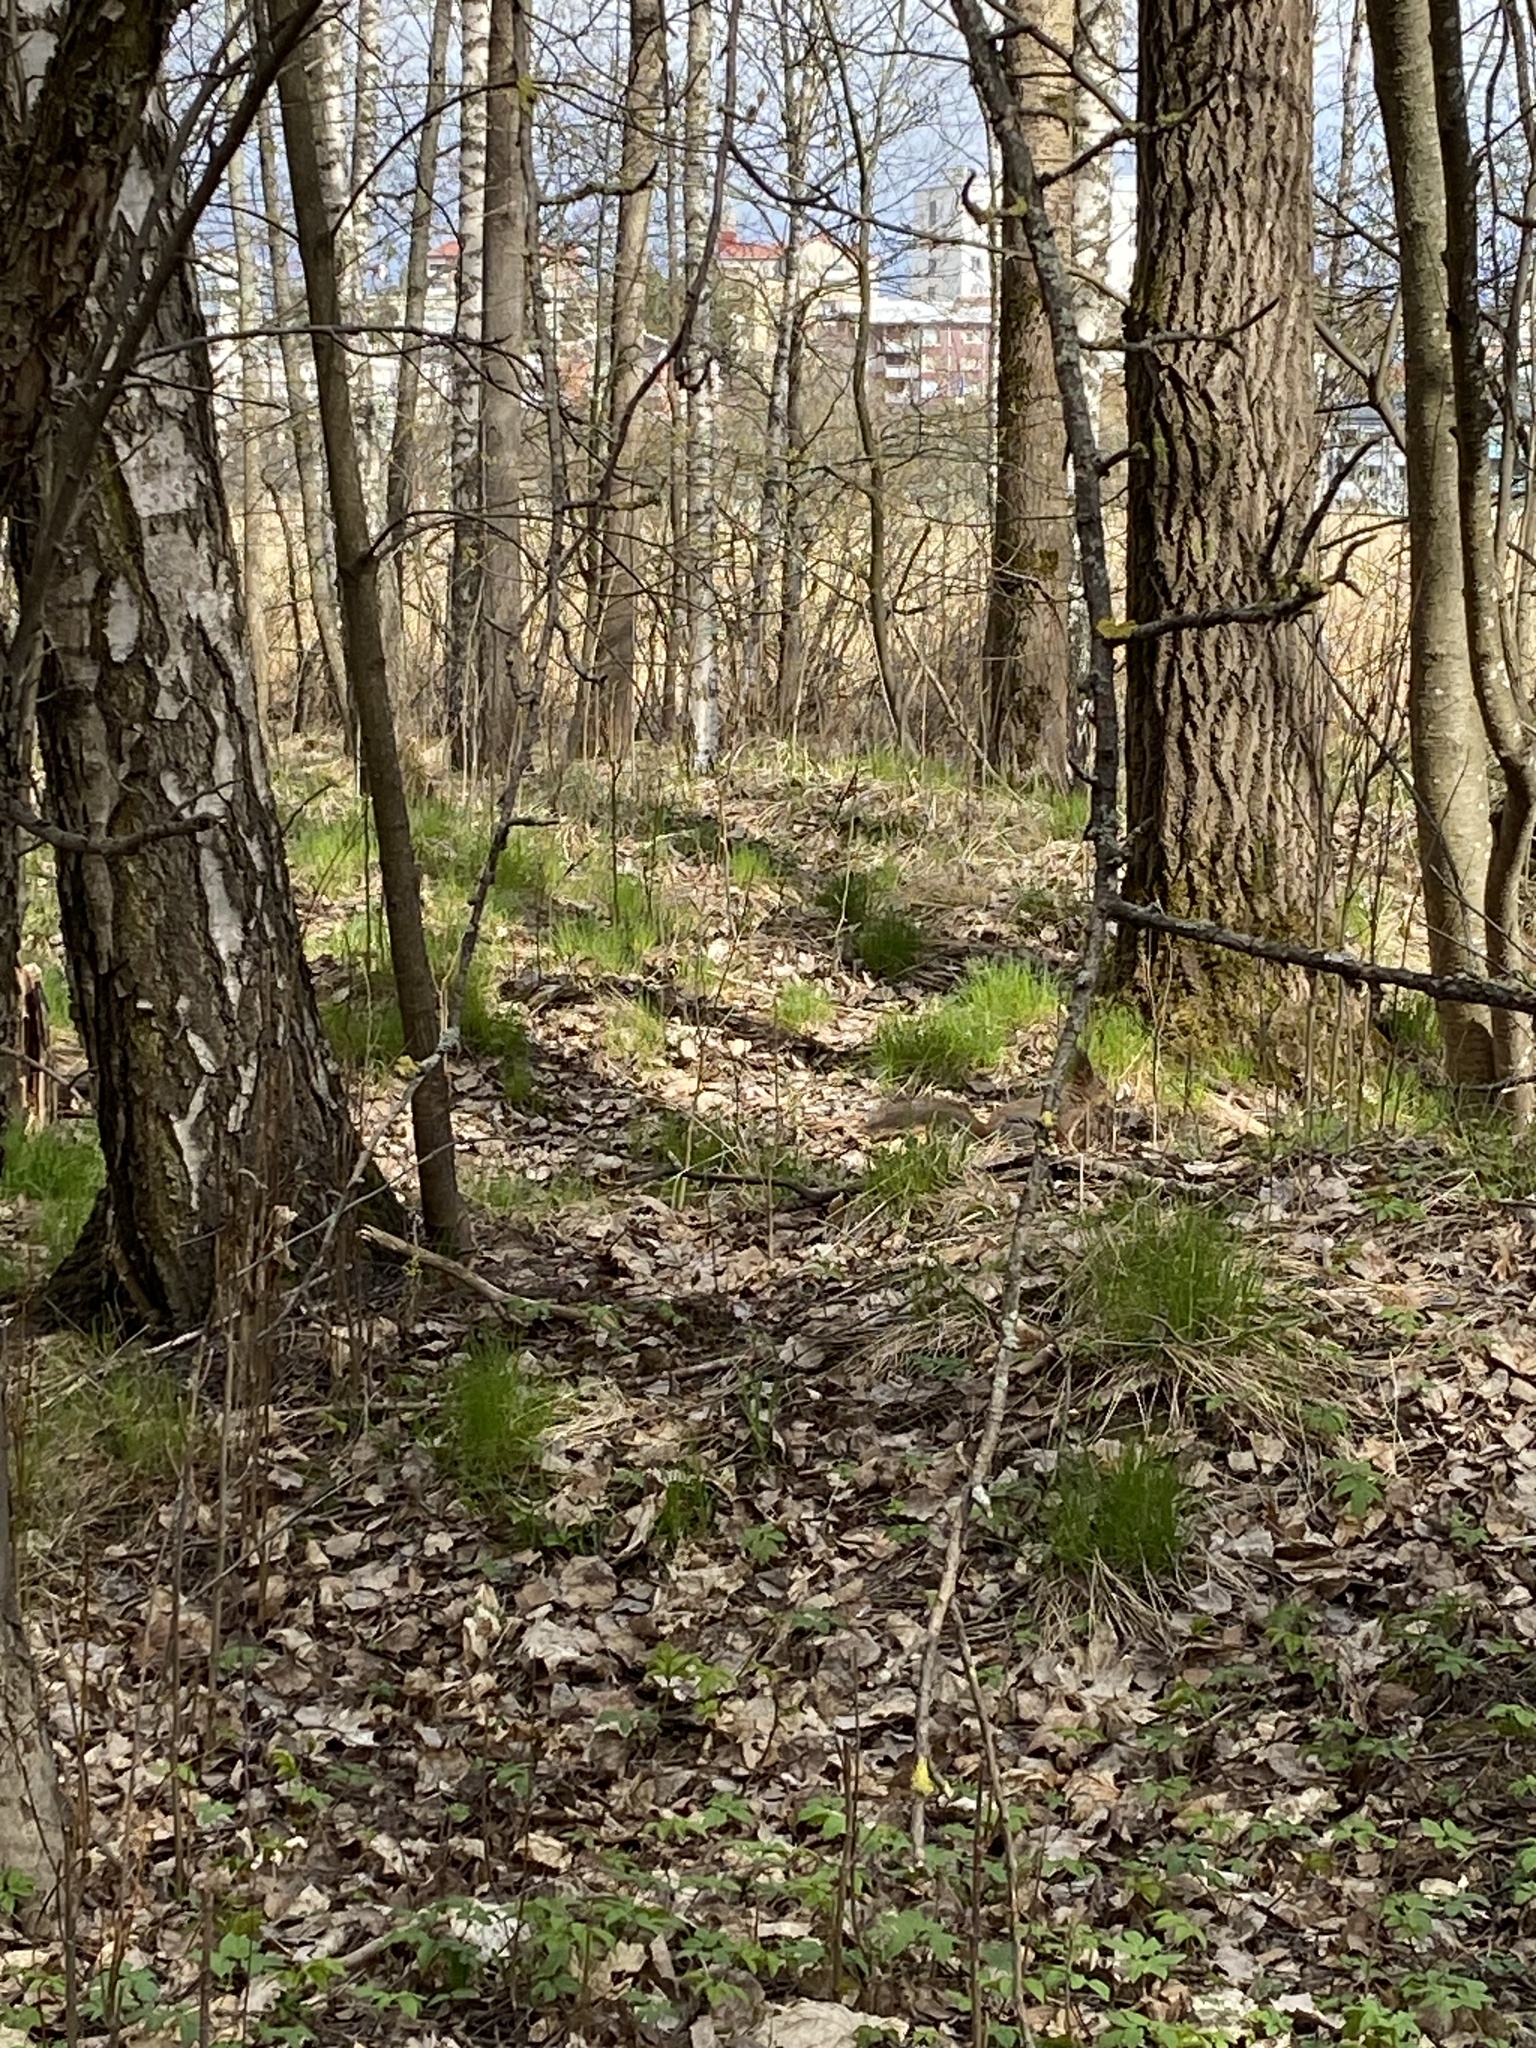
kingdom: Animalia
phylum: Chordata
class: Mammalia
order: Rodentia
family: Sciuridae
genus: Sciurus
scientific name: Sciurus vulgaris
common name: Eurasian red squirrel
